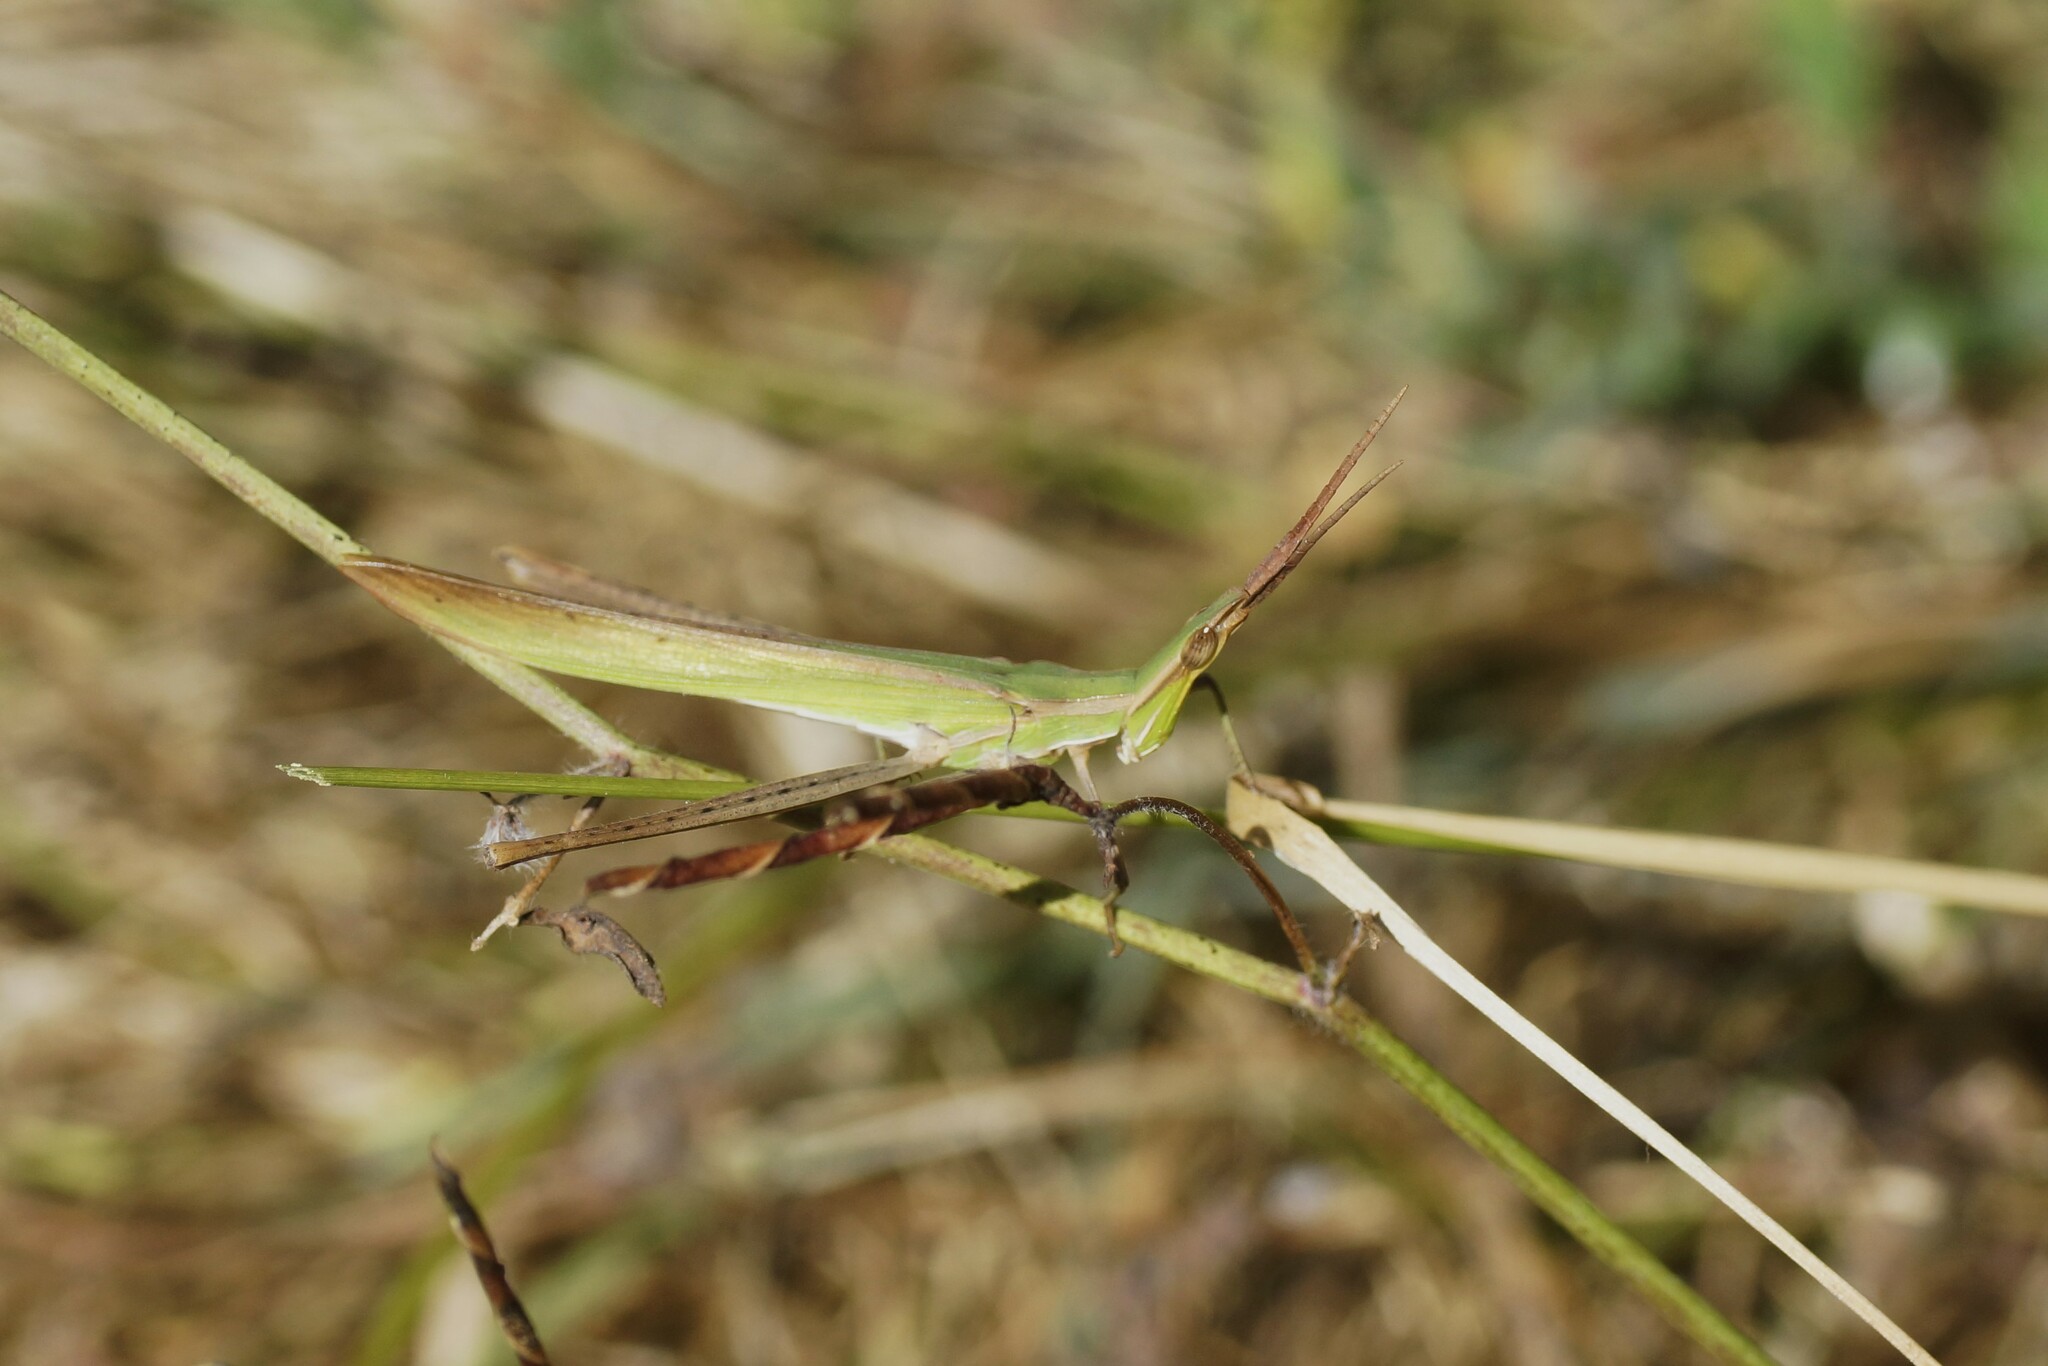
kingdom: Animalia
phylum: Arthropoda
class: Insecta
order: Orthoptera
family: Acrididae
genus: Acrida
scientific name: Acrida conica
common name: Giant green slantface
